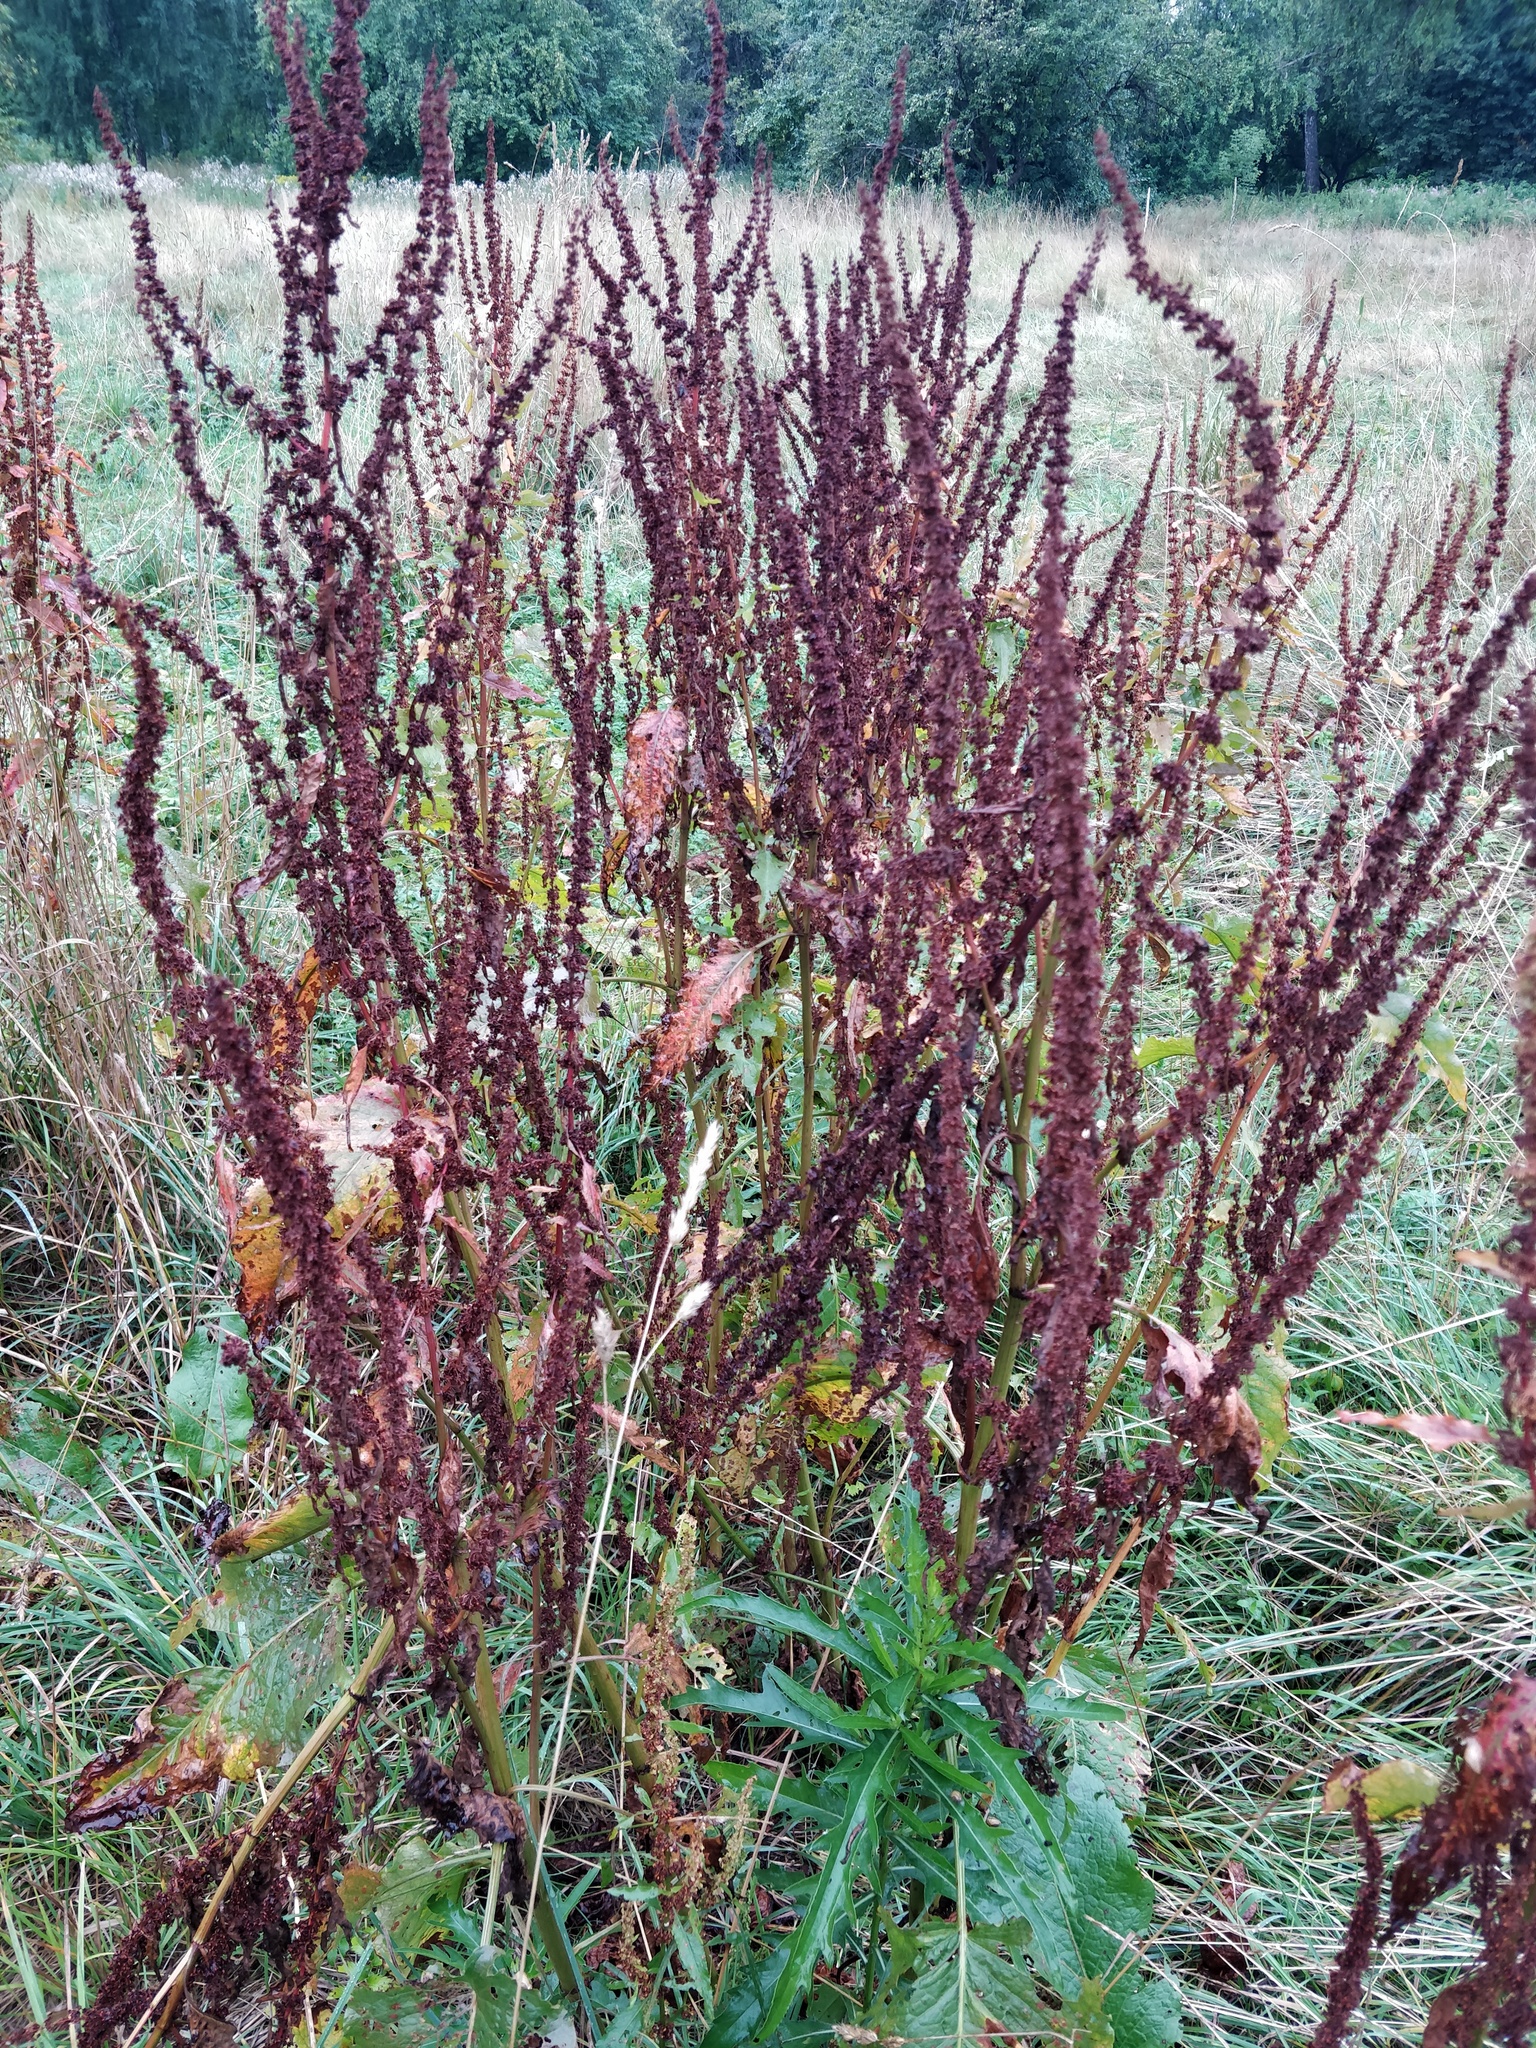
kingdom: Plantae
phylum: Tracheophyta
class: Magnoliopsida
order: Caryophyllales
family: Polygonaceae
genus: Rumex
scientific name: Rumex obtusifolius
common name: Bitter dock
